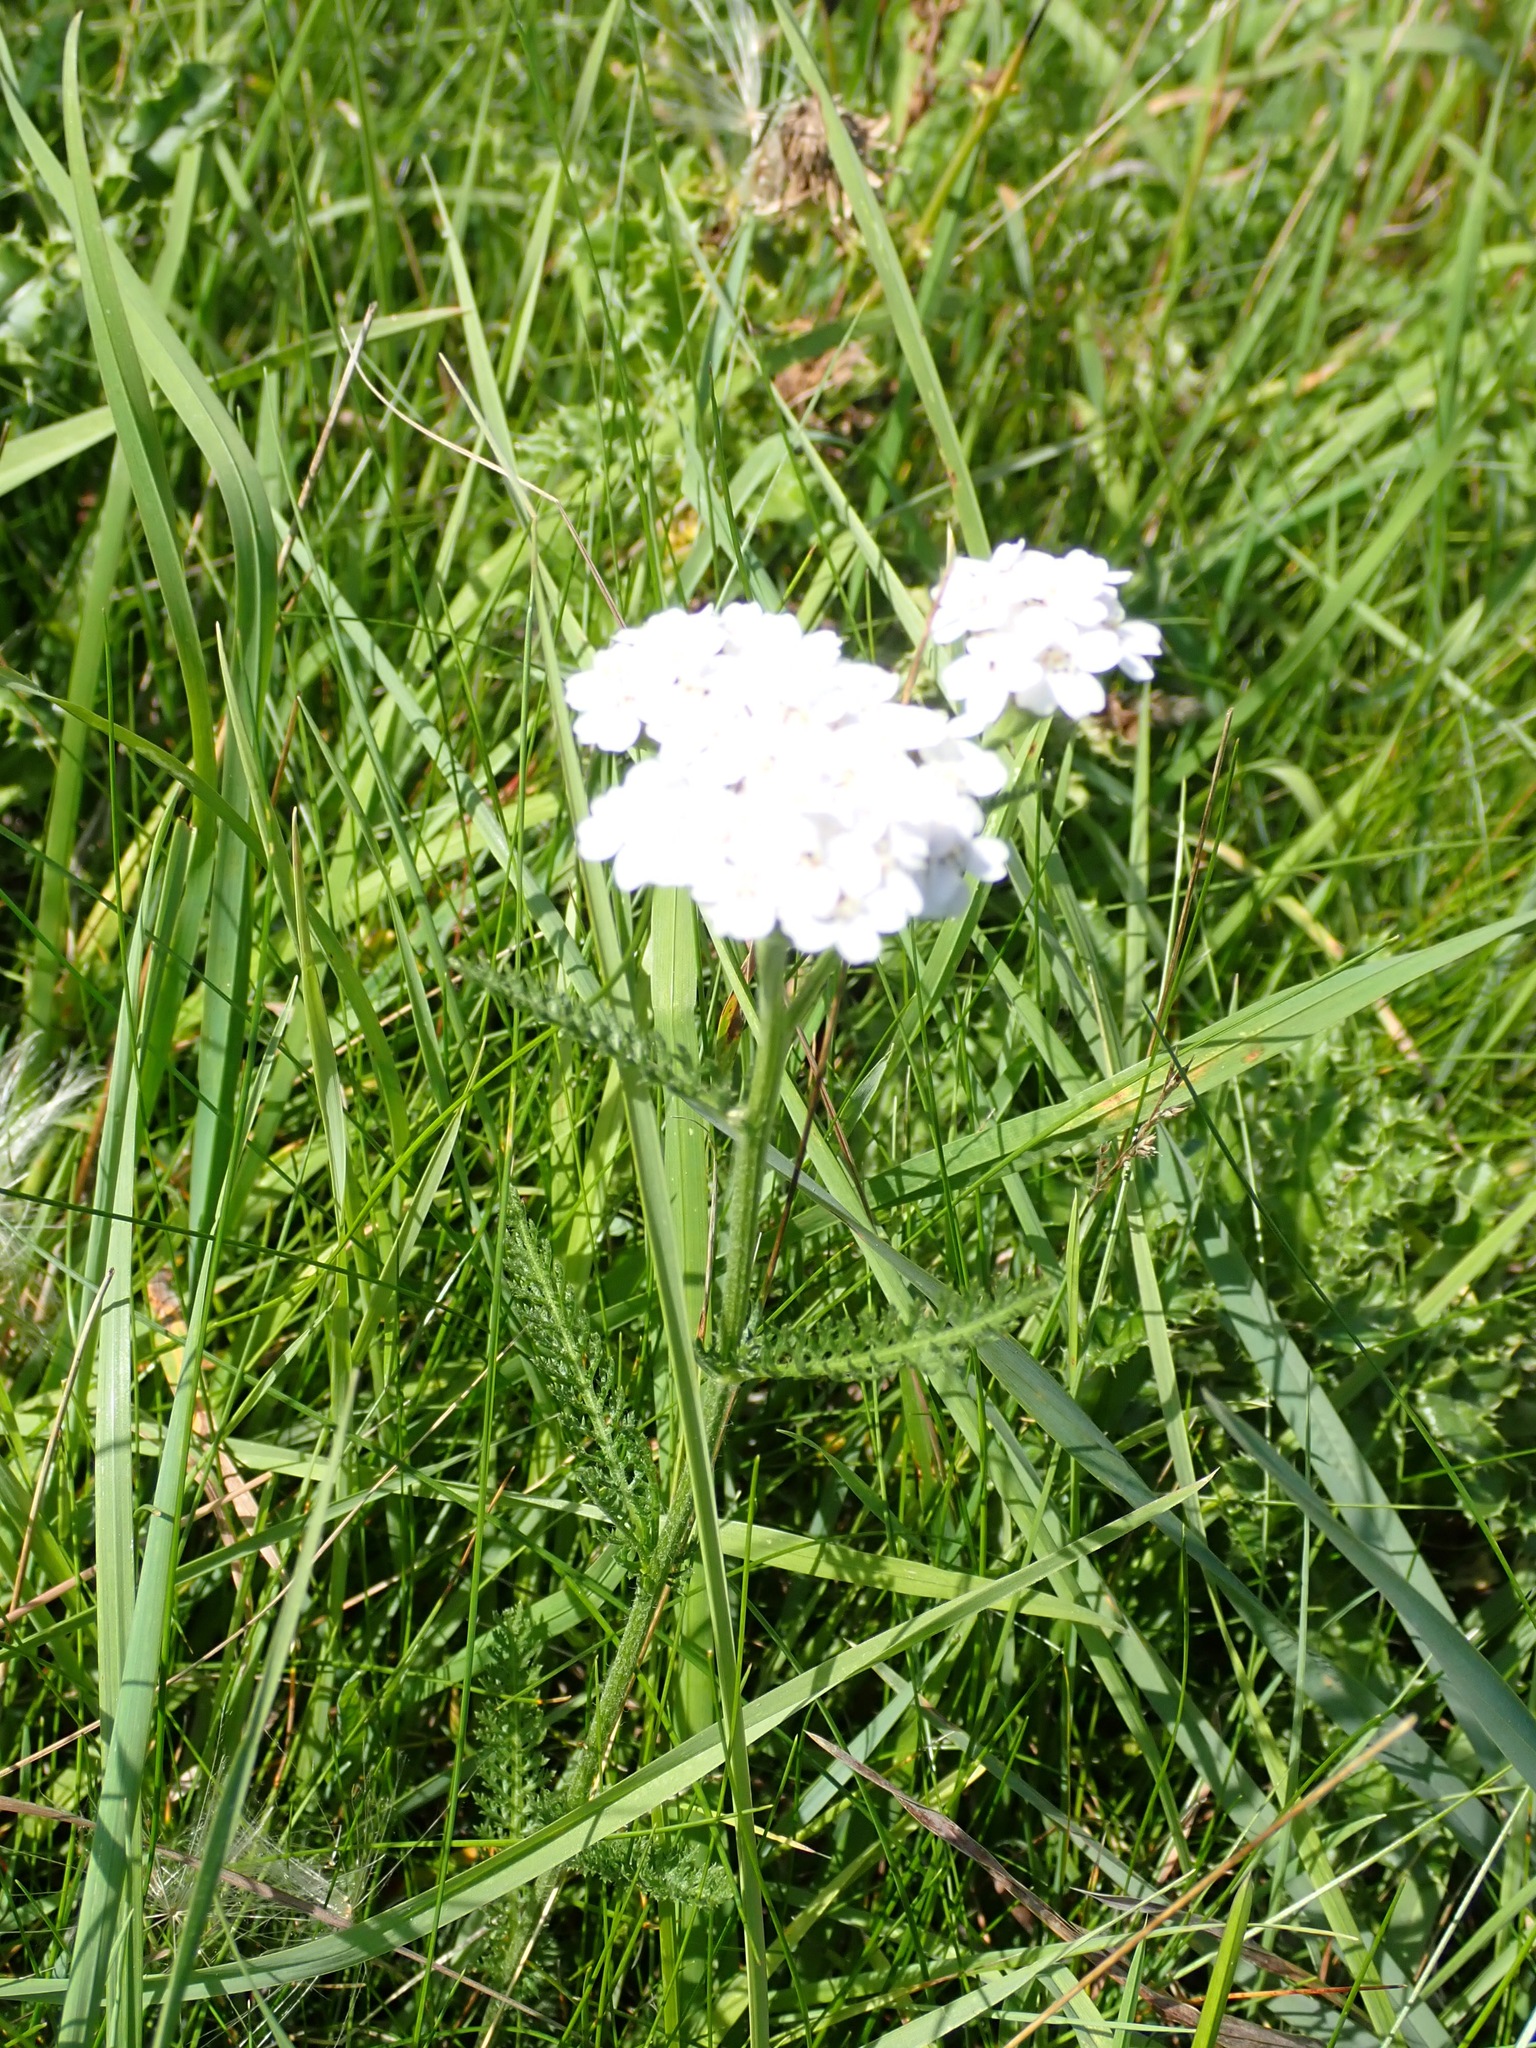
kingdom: Plantae
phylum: Tracheophyta
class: Magnoliopsida
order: Asterales
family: Asteraceae
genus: Achillea
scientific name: Achillea millefolium
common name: Yarrow
